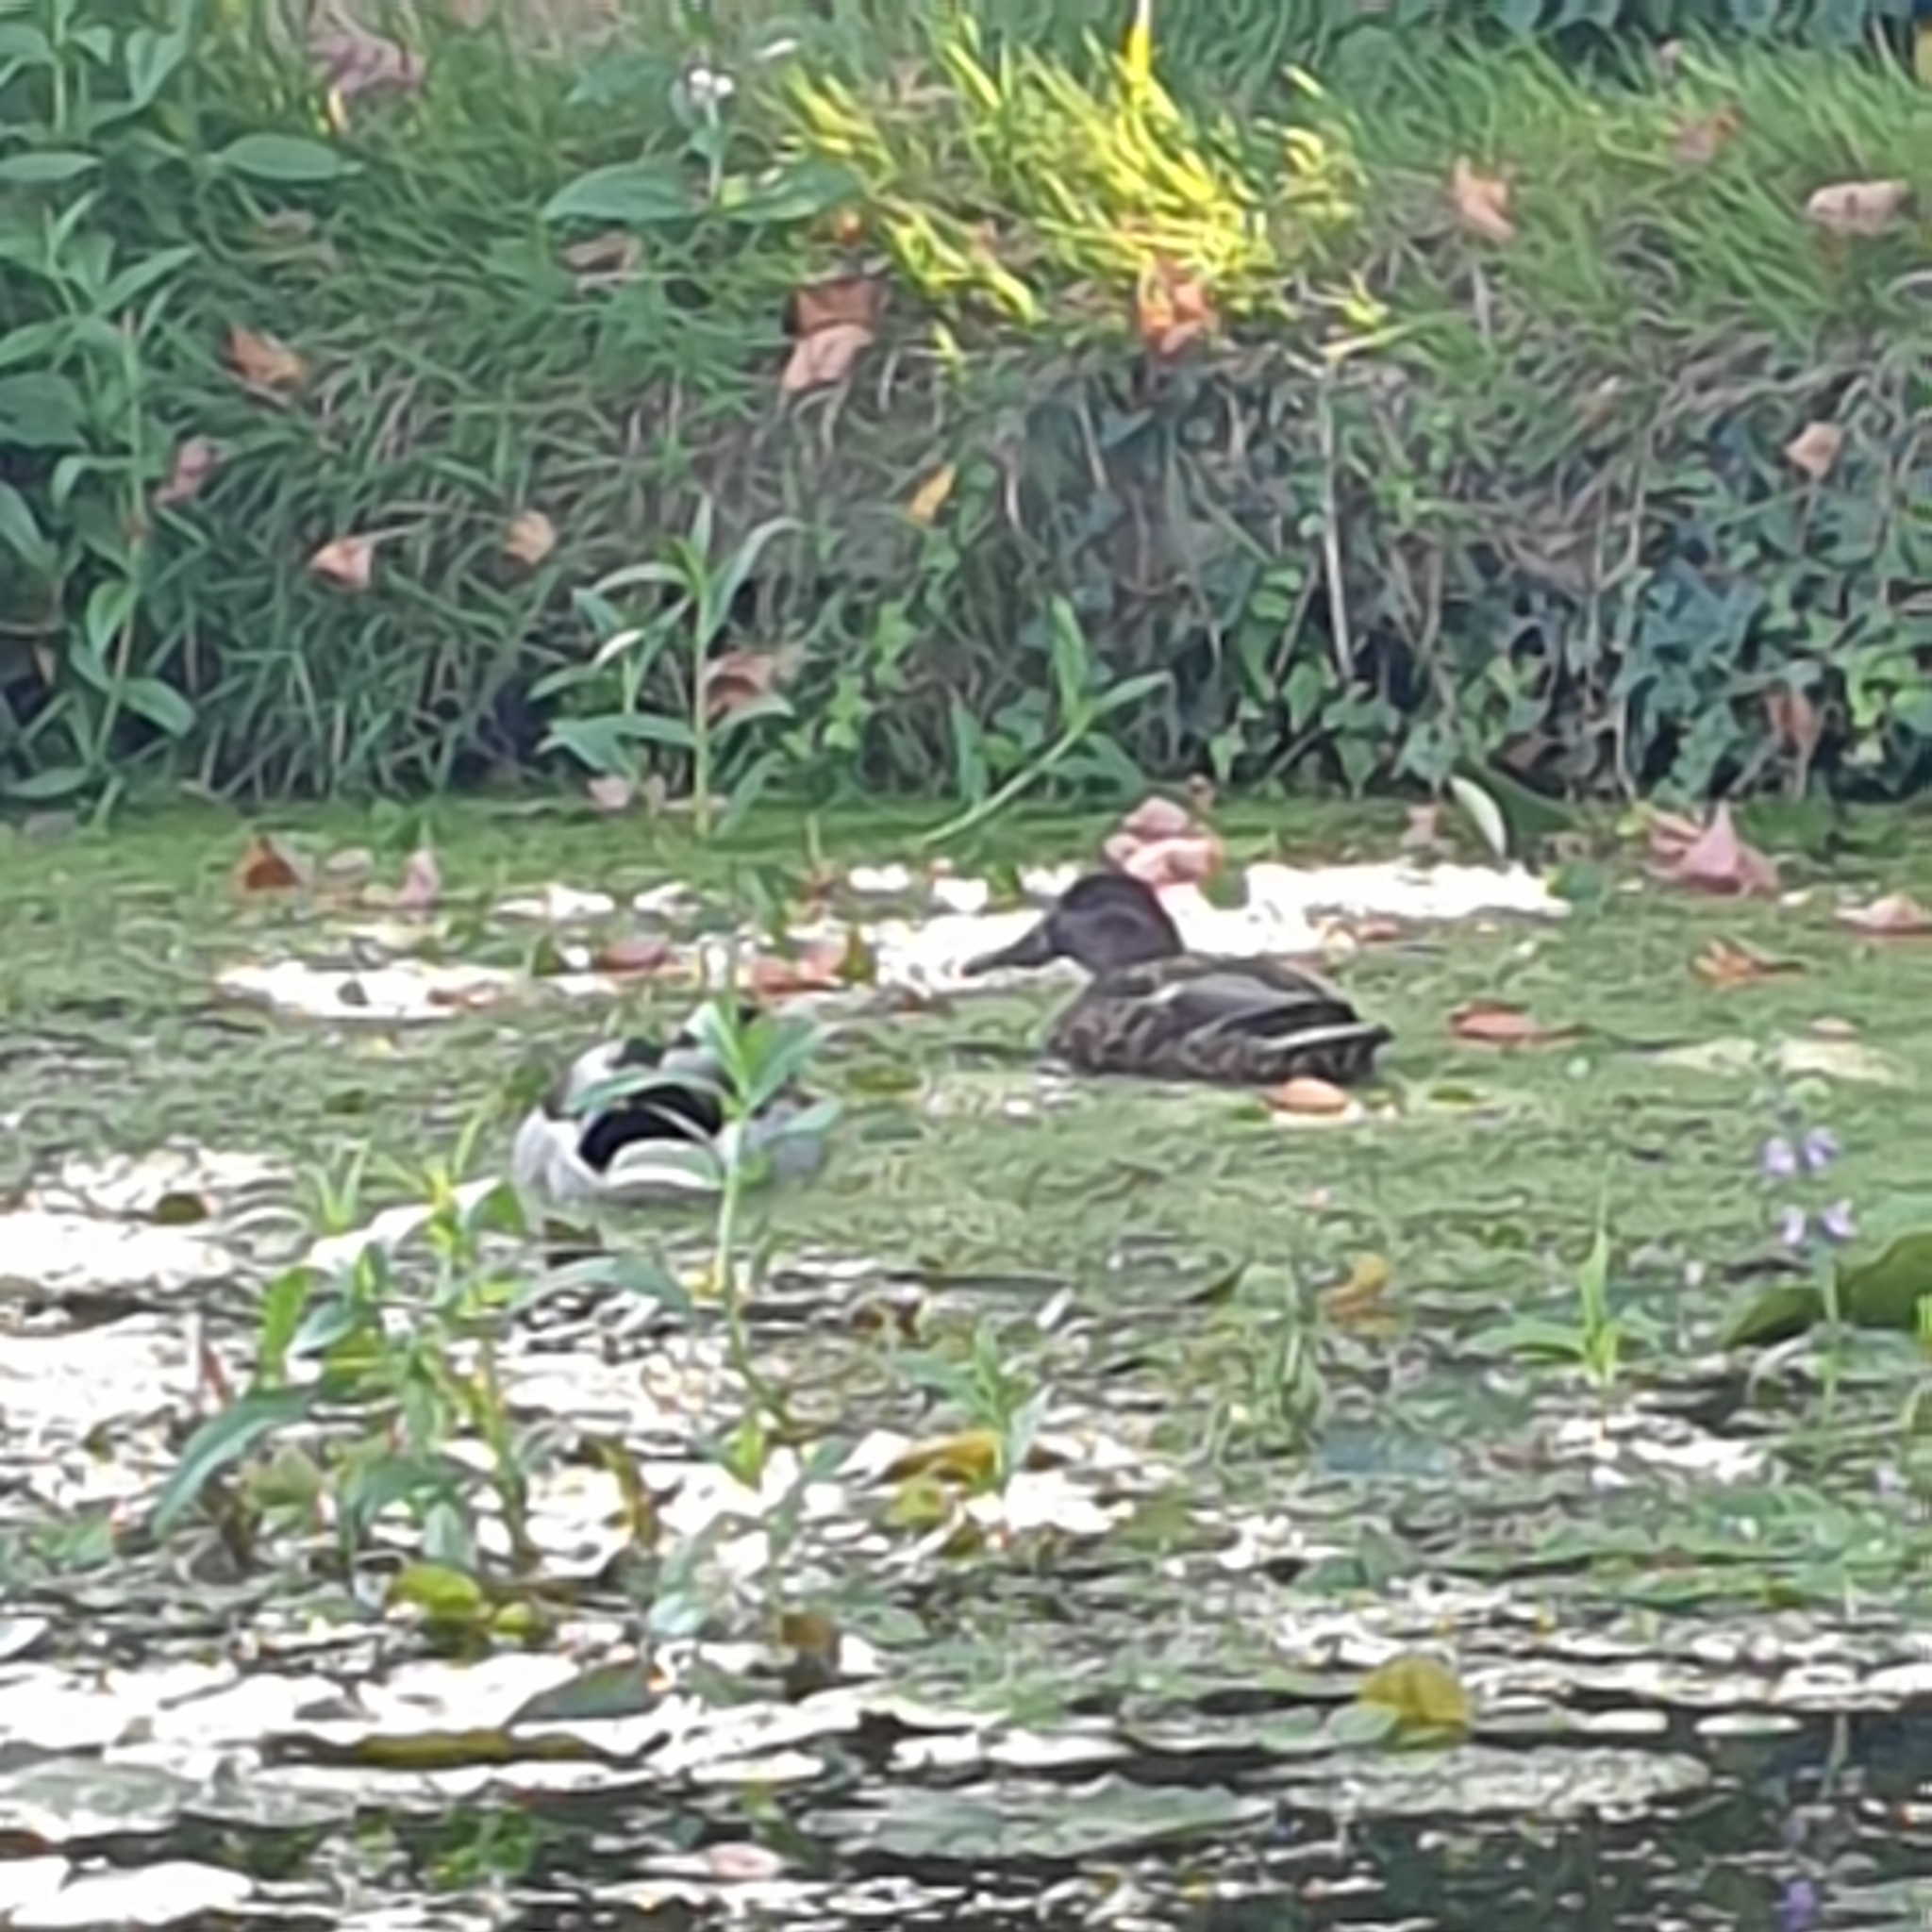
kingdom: Animalia
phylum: Chordata
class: Aves
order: Anseriformes
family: Anatidae
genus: Anas
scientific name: Anas platyrhynchos
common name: Mallard
